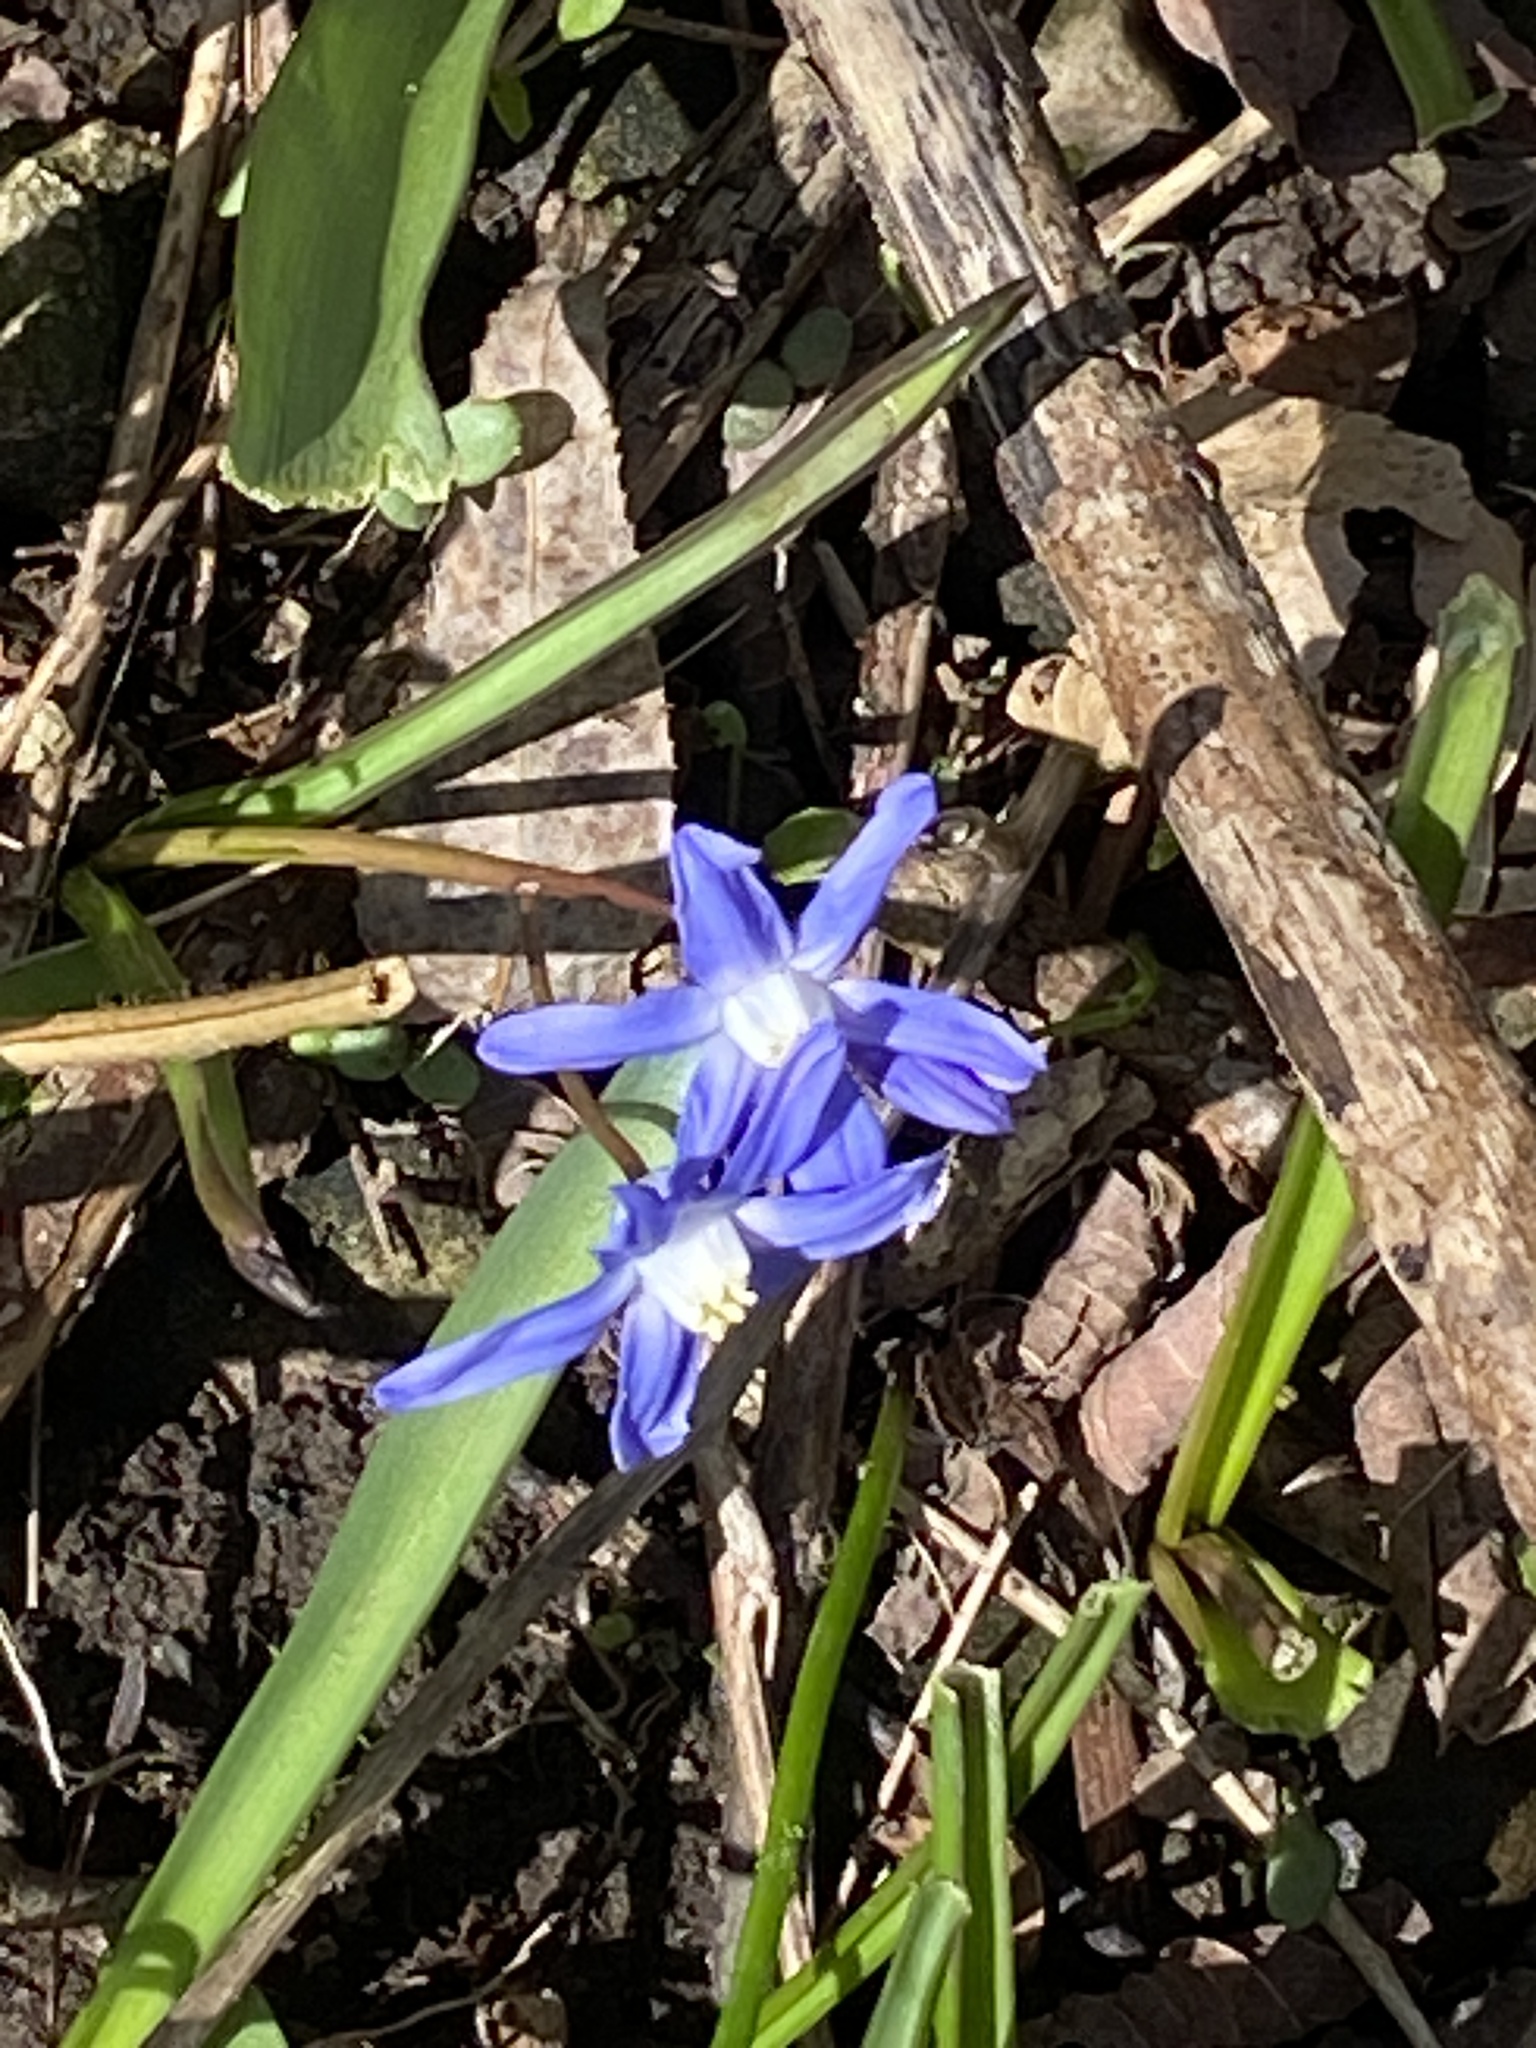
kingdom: Plantae
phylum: Tracheophyta
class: Liliopsida
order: Asparagales
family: Asparagaceae
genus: Scilla
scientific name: Scilla luciliae
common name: Boissier's glory-of-the-snow
